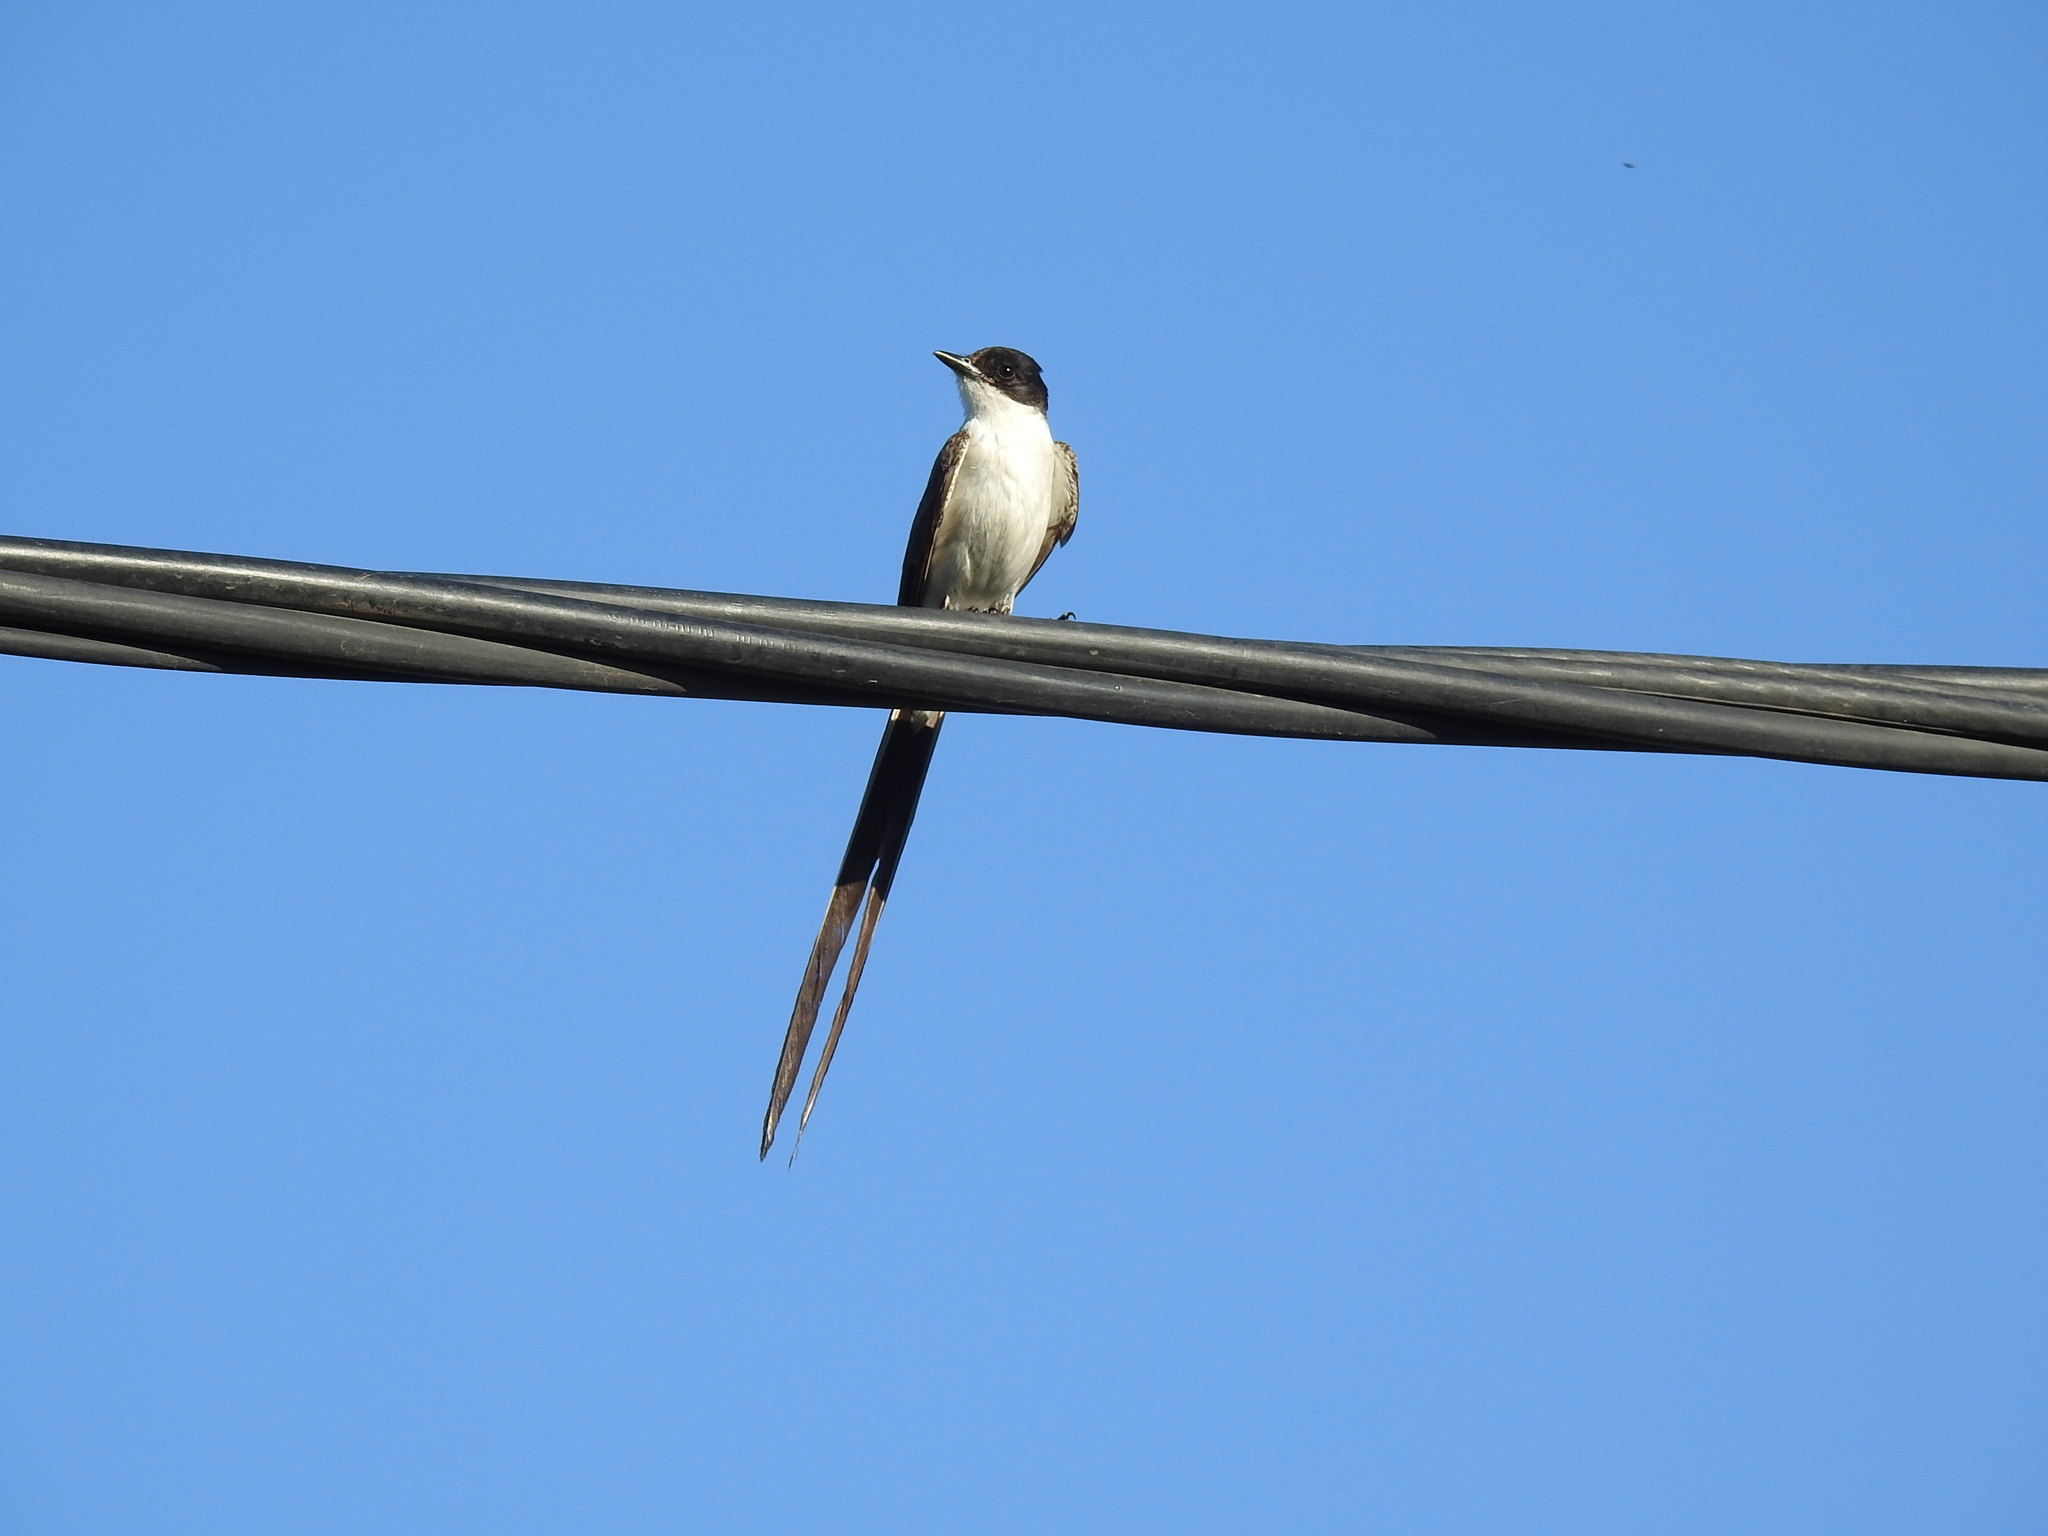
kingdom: Animalia
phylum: Chordata
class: Aves
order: Passeriformes
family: Tyrannidae
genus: Tyrannus
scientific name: Tyrannus savana
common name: Fork-tailed flycatcher
